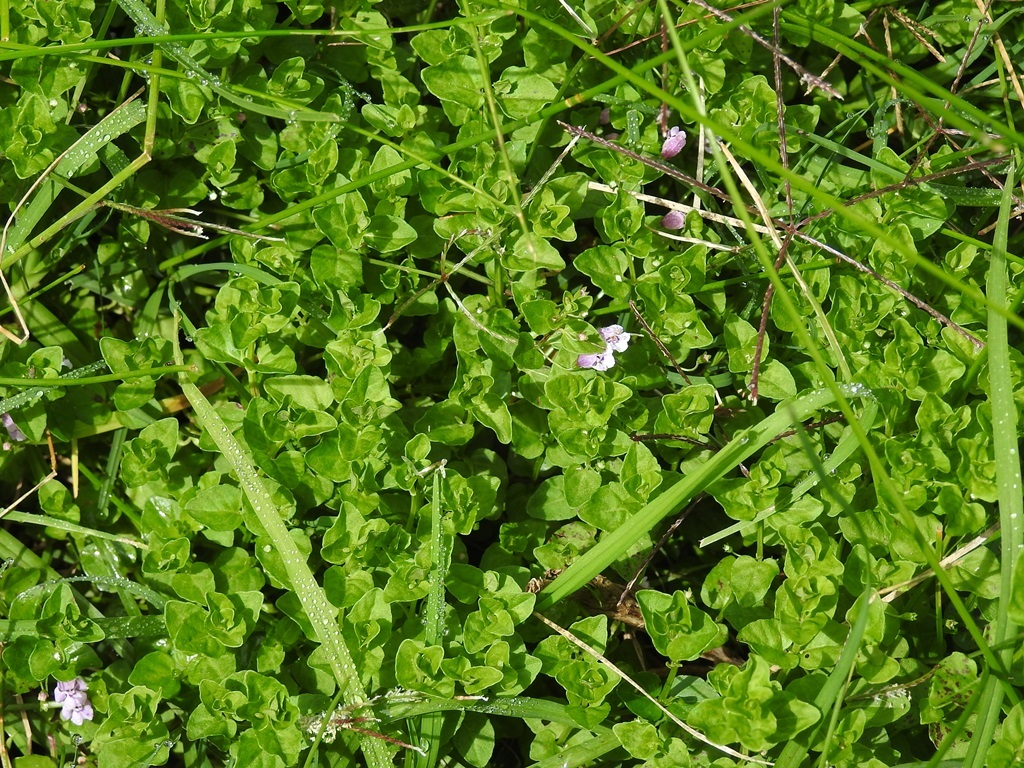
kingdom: Plantae
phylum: Tracheophyta
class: Magnoliopsida
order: Lamiales
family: Lamiaceae
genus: Clinopodium
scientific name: Clinopodium brownei
